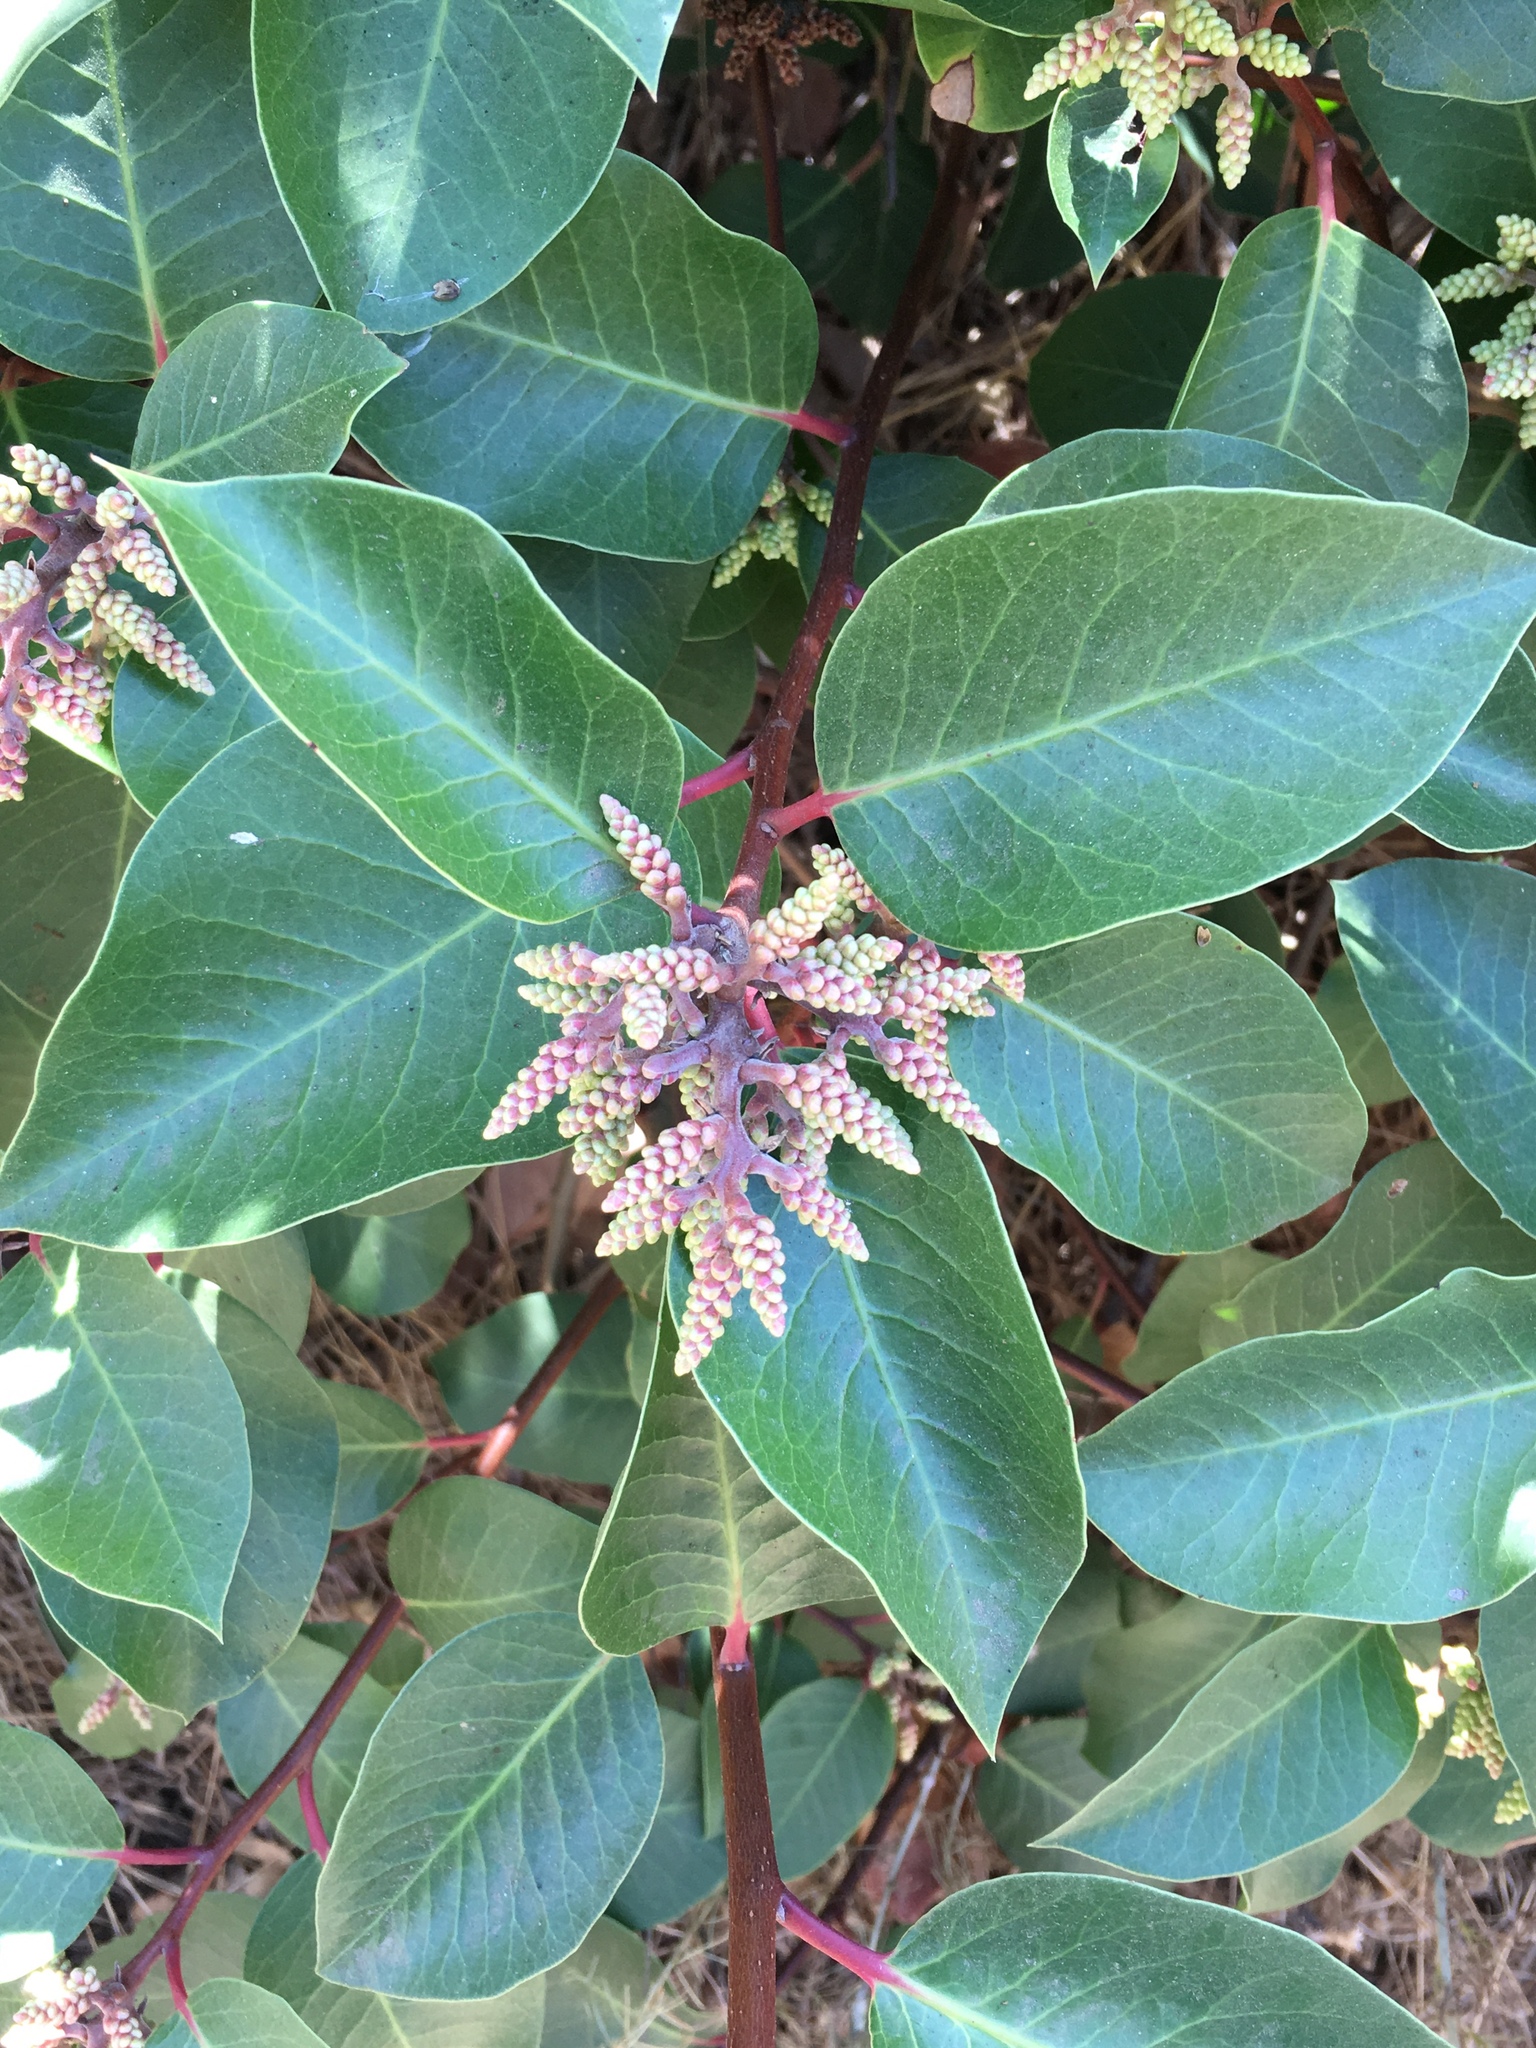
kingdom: Plantae
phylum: Tracheophyta
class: Magnoliopsida
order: Sapindales
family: Anacardiaceae
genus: Rhus
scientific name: Rhus ovata
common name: Sugar sumac
